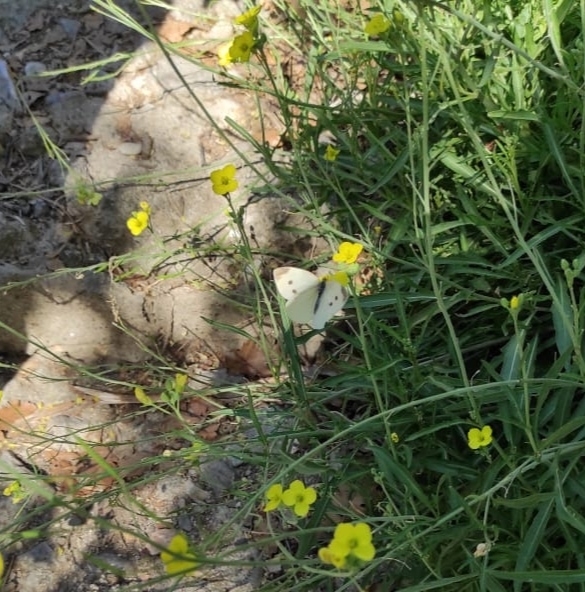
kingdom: Animalia
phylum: Arthropoda
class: Insecta
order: Lepidoptera
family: Pieridae
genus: Pieris
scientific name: Pieris rapae
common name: Small white
